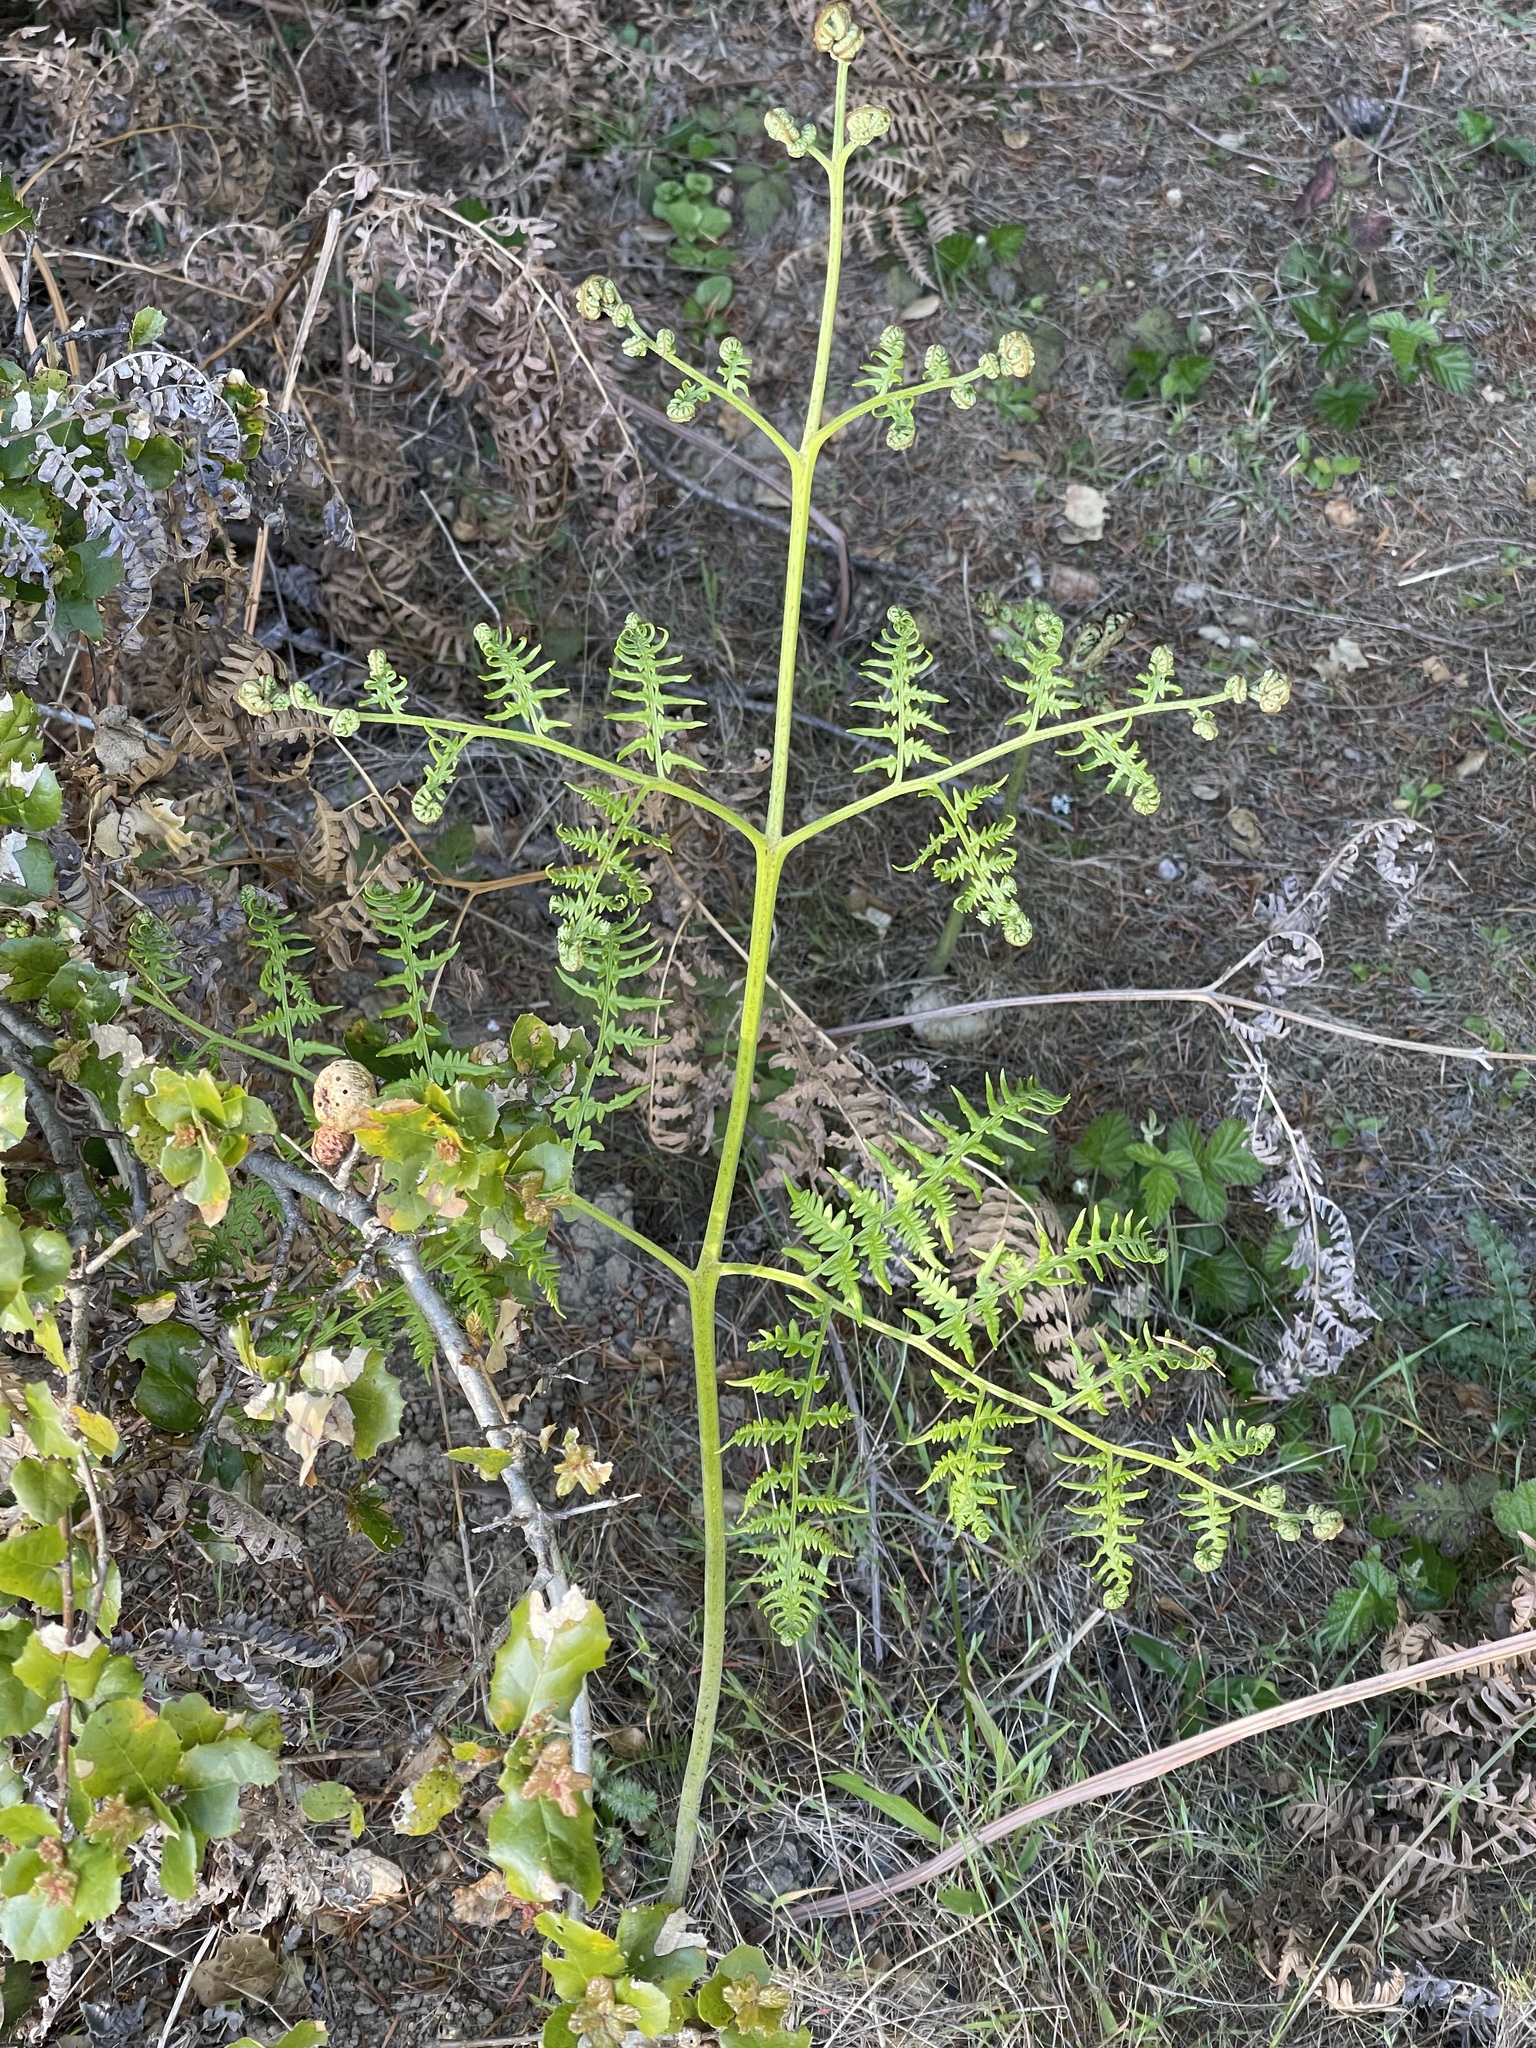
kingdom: Plantae
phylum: Tracheophyta
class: Polypodiopsida
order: Polypodiales
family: Dennstaedtiaceae
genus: Pteridium
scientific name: Pteridium aquilinum
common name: Bracken
